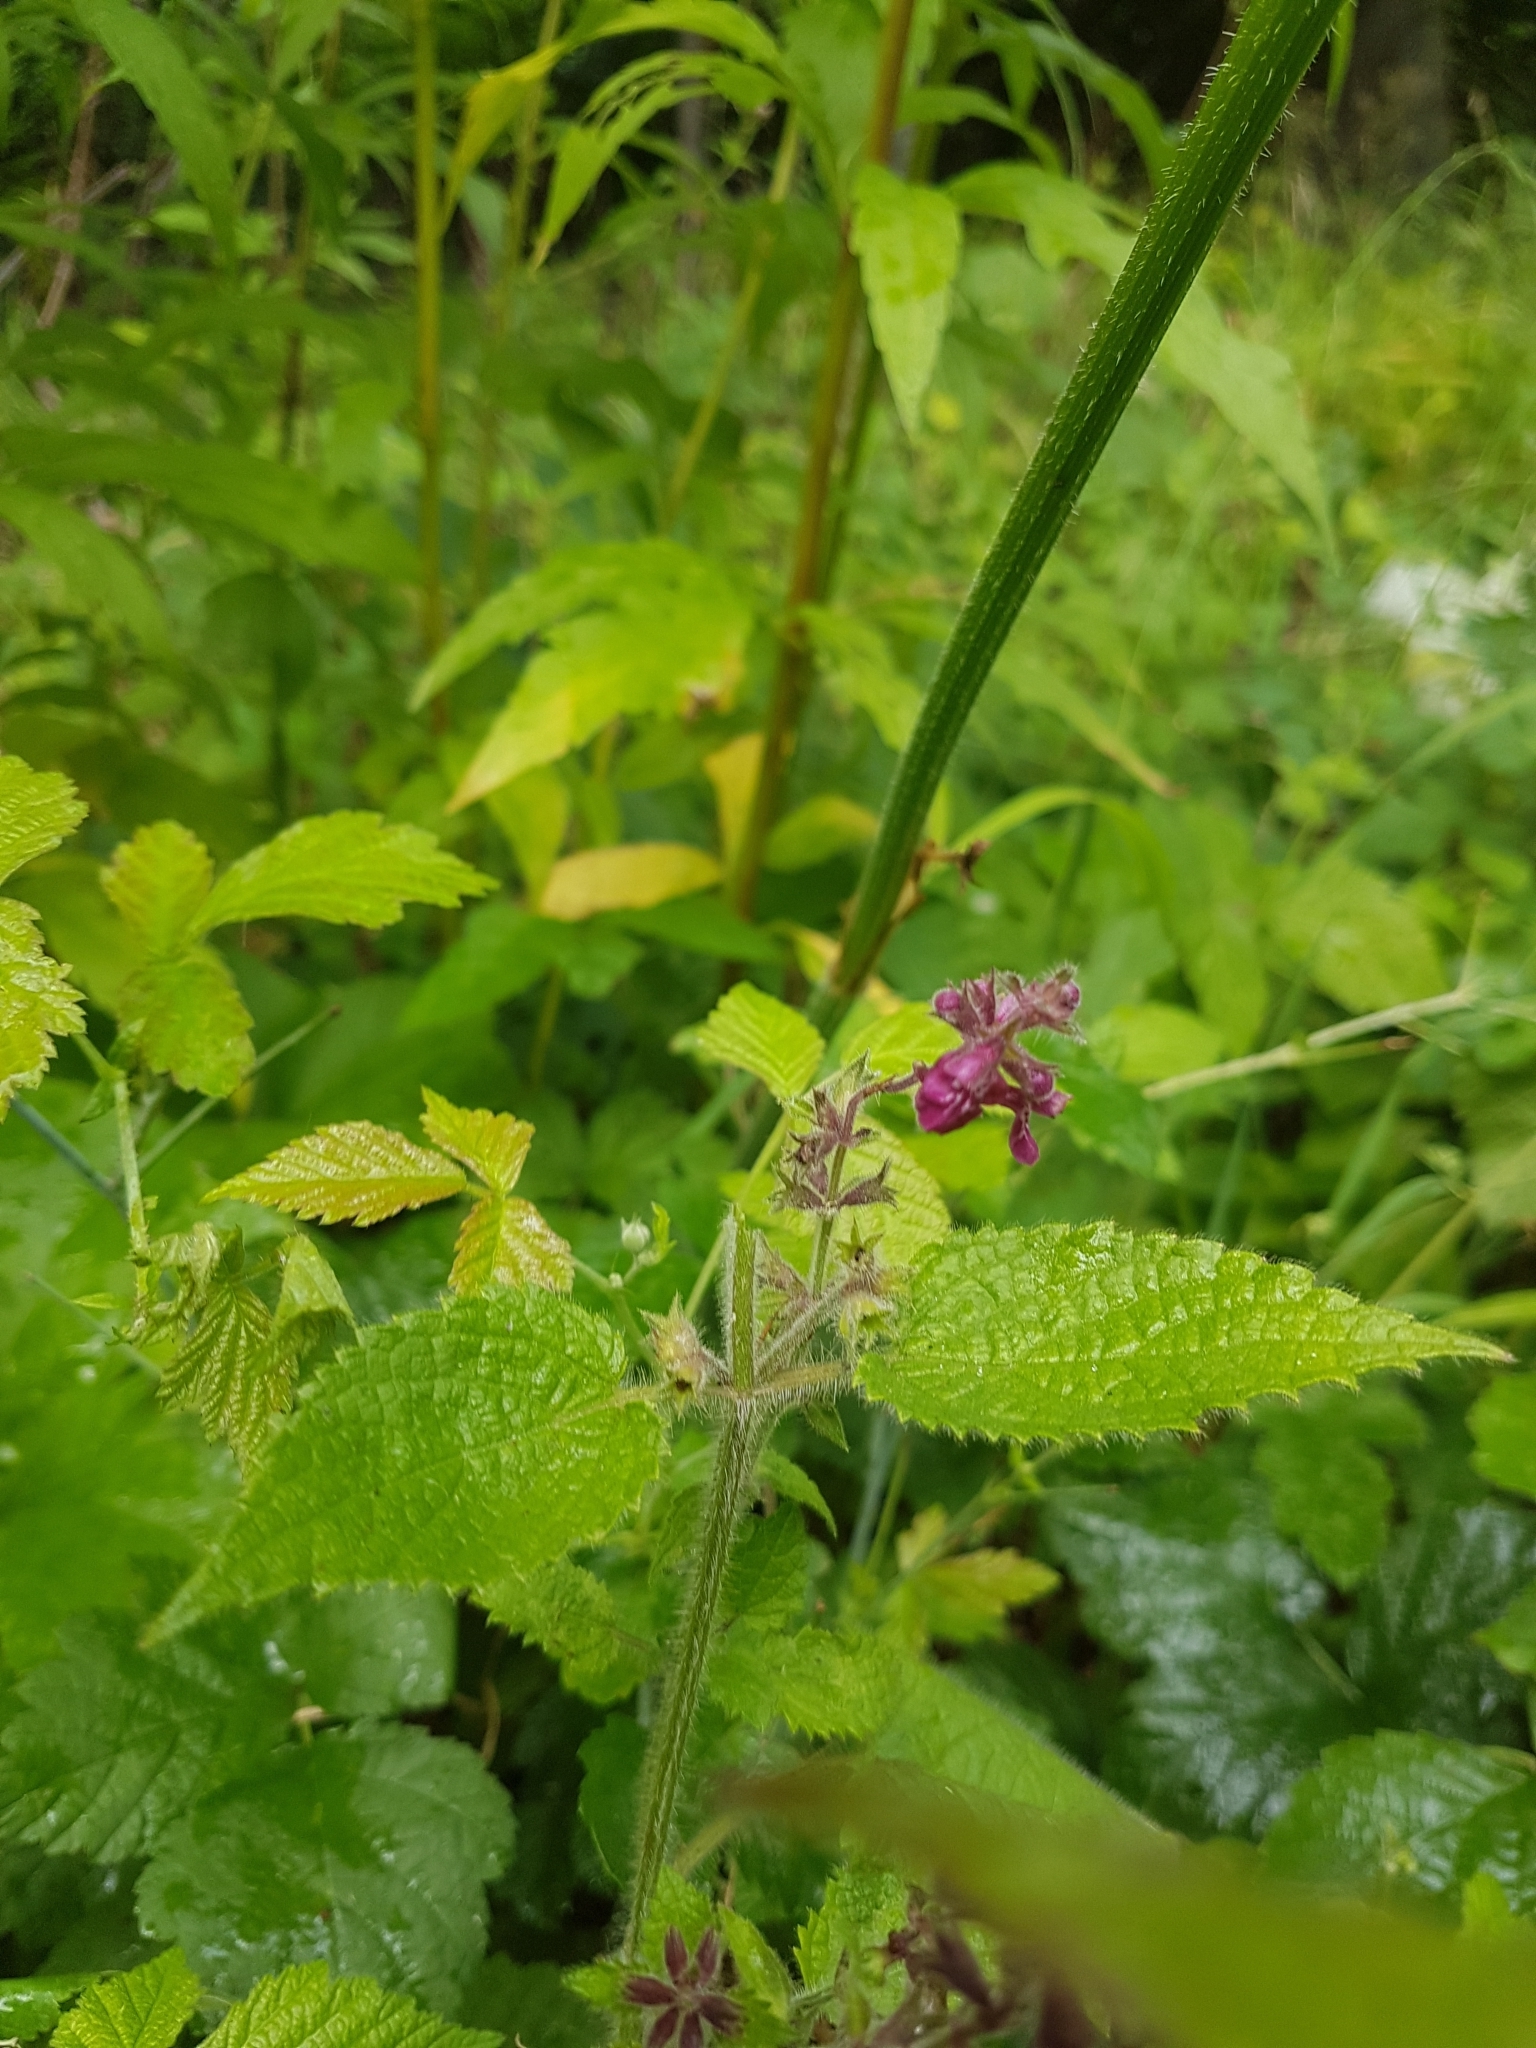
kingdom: Plantae
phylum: Tracheophyta
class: Magnoliopsida
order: Lamiales
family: Lamiaceae
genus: Stachys
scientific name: Stachys sylvatica
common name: Hedge woundwort
